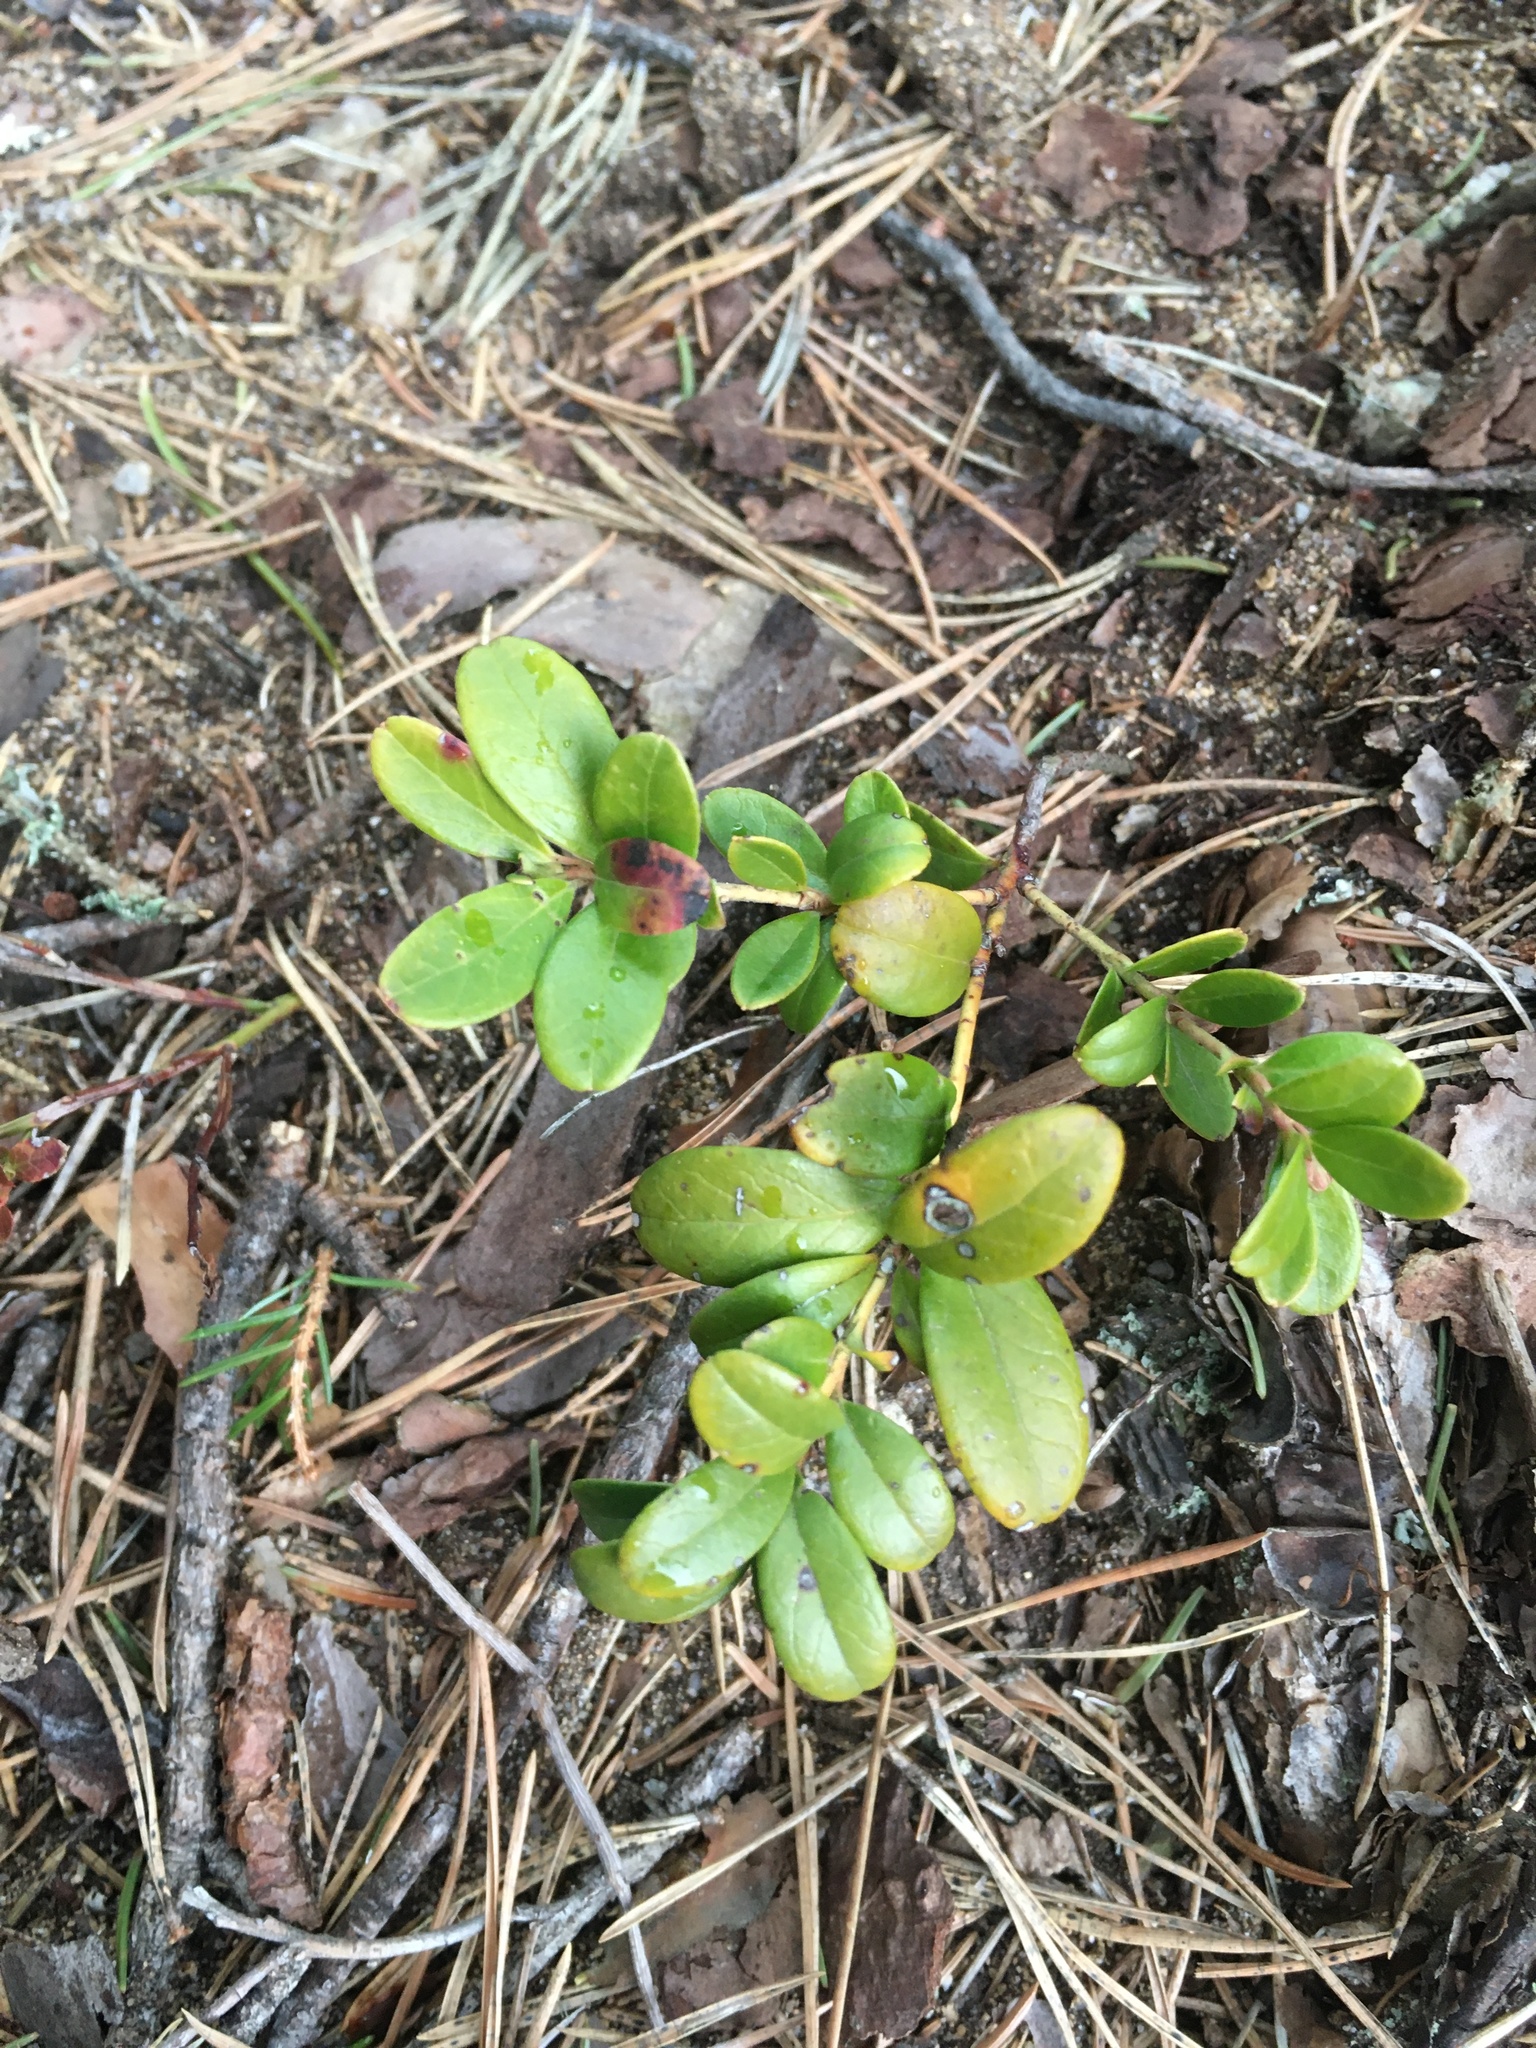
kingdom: Plantae
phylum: Tracheophyta
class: Magnoliopsida
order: Ericales
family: Ericaceae
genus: Vaccinium
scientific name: Vaccinium vitis-idaea
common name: Cowberry
